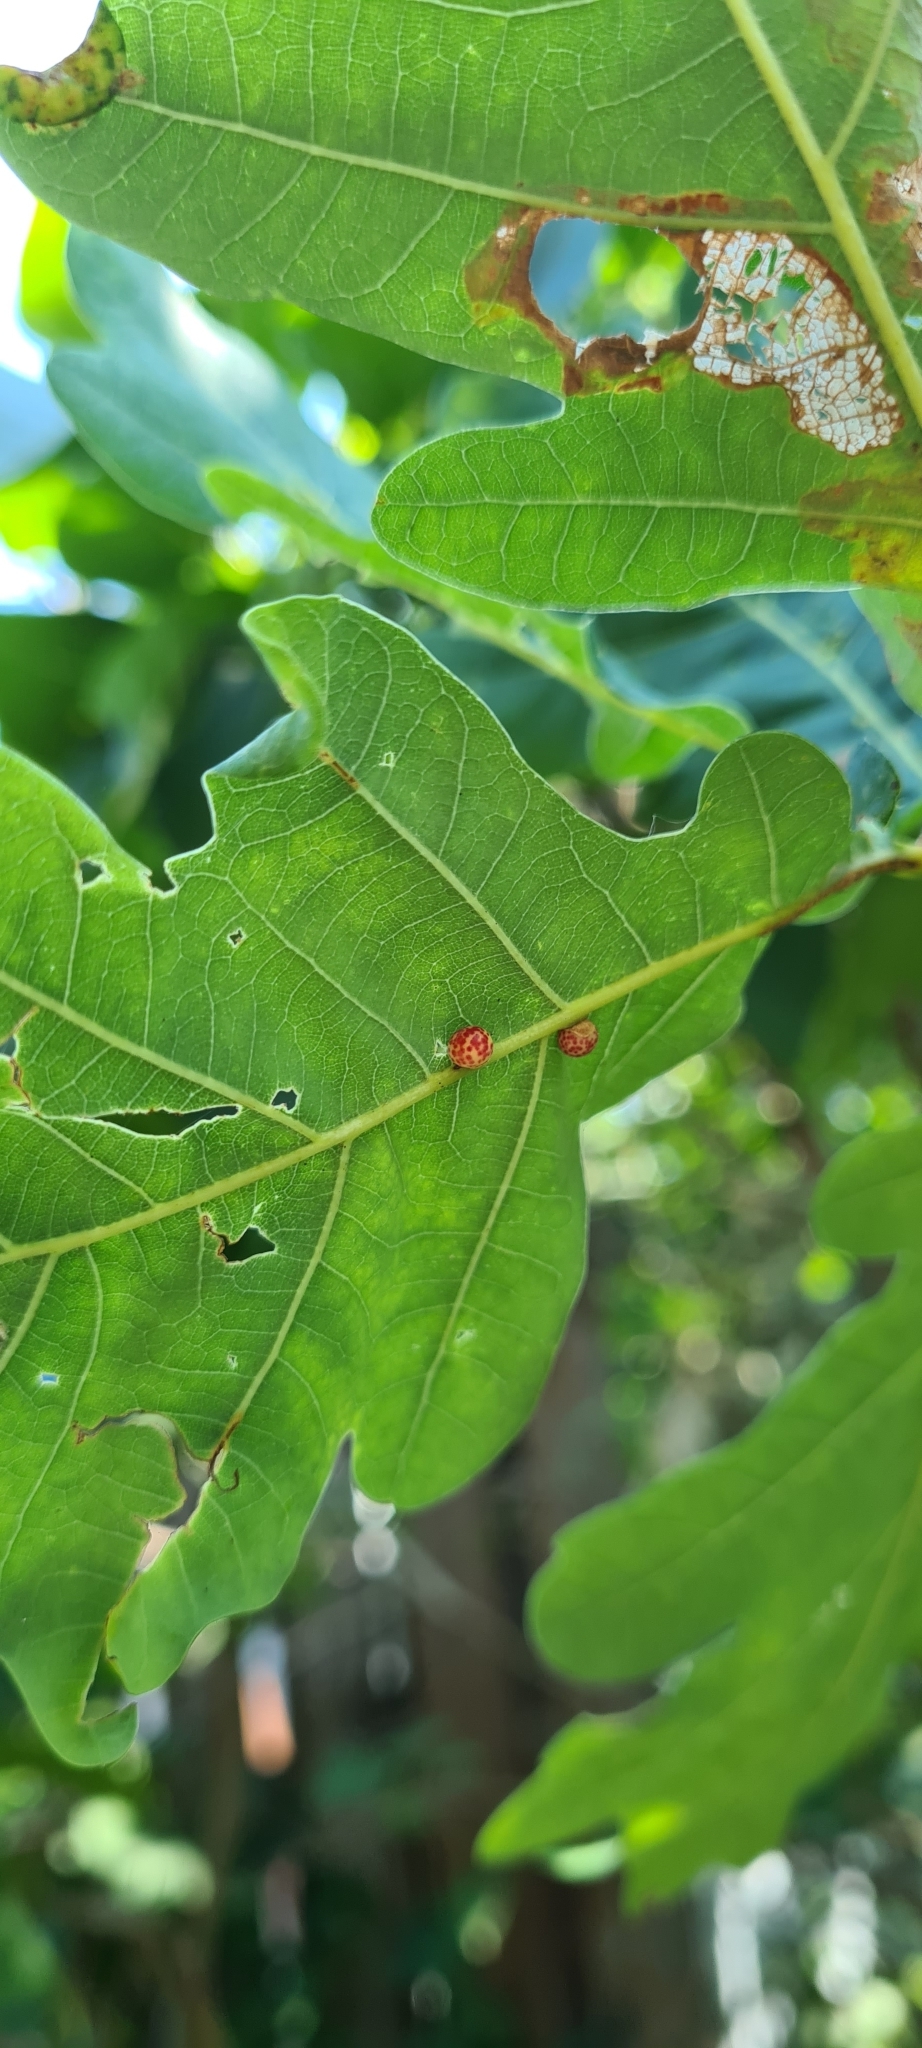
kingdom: Animalia
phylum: Arthropoda
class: Insecta
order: Hymenoptera
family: Cynipidae
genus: Neuroterus
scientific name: Neuroterus anthracinus
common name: Oyster gall
